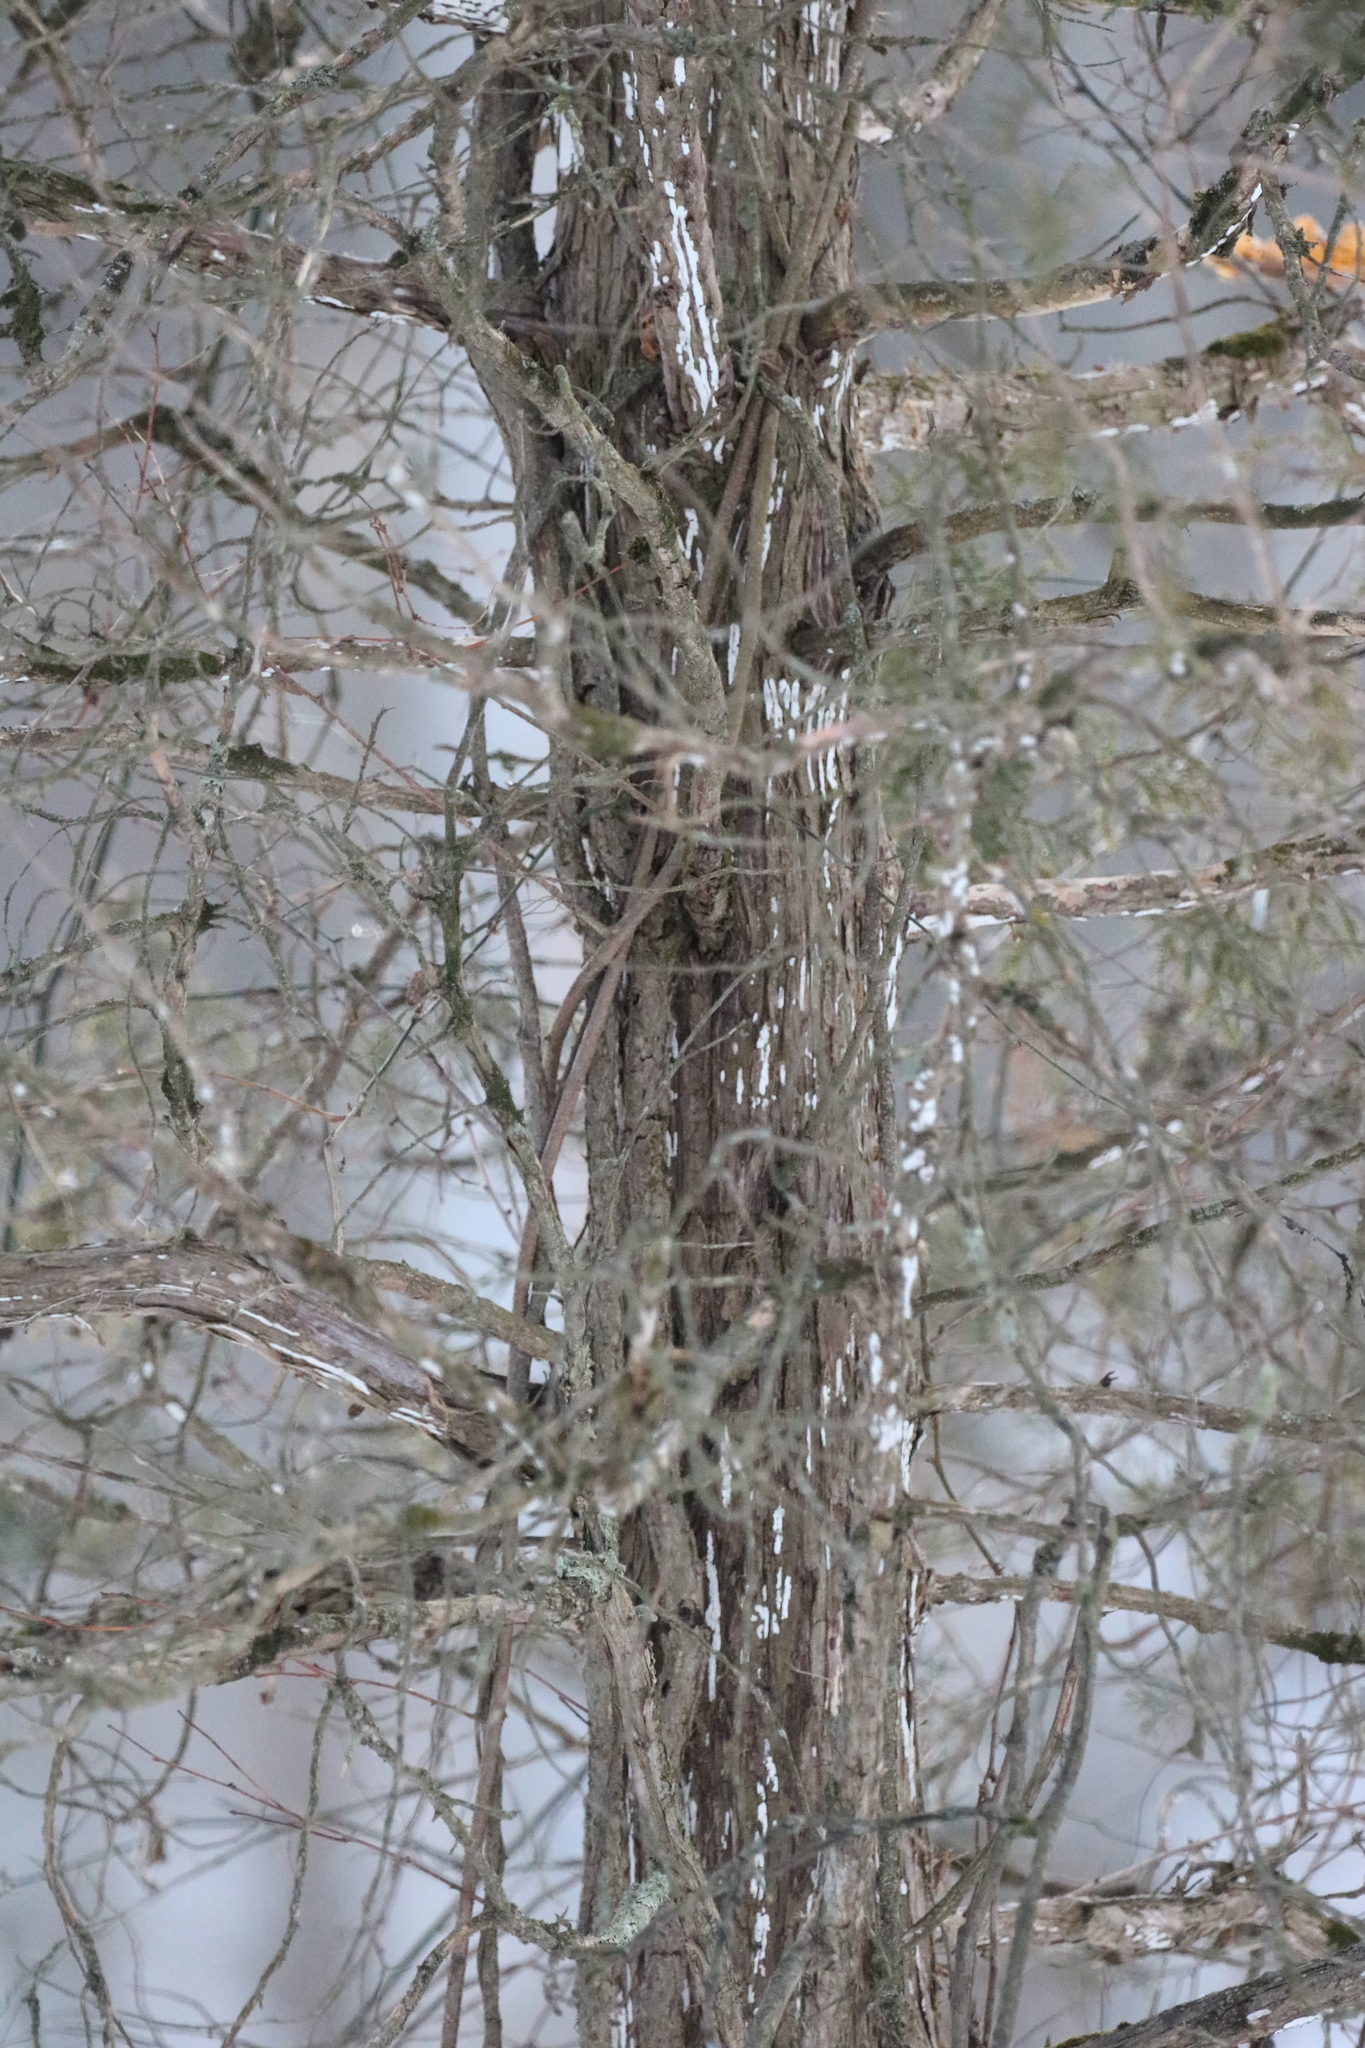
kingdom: Plantae
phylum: Tracheophyta
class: Pinopsida
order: Pinales
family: Cupressaceae
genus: Juniperus
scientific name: Juniperus virginiana
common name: Red juniper
